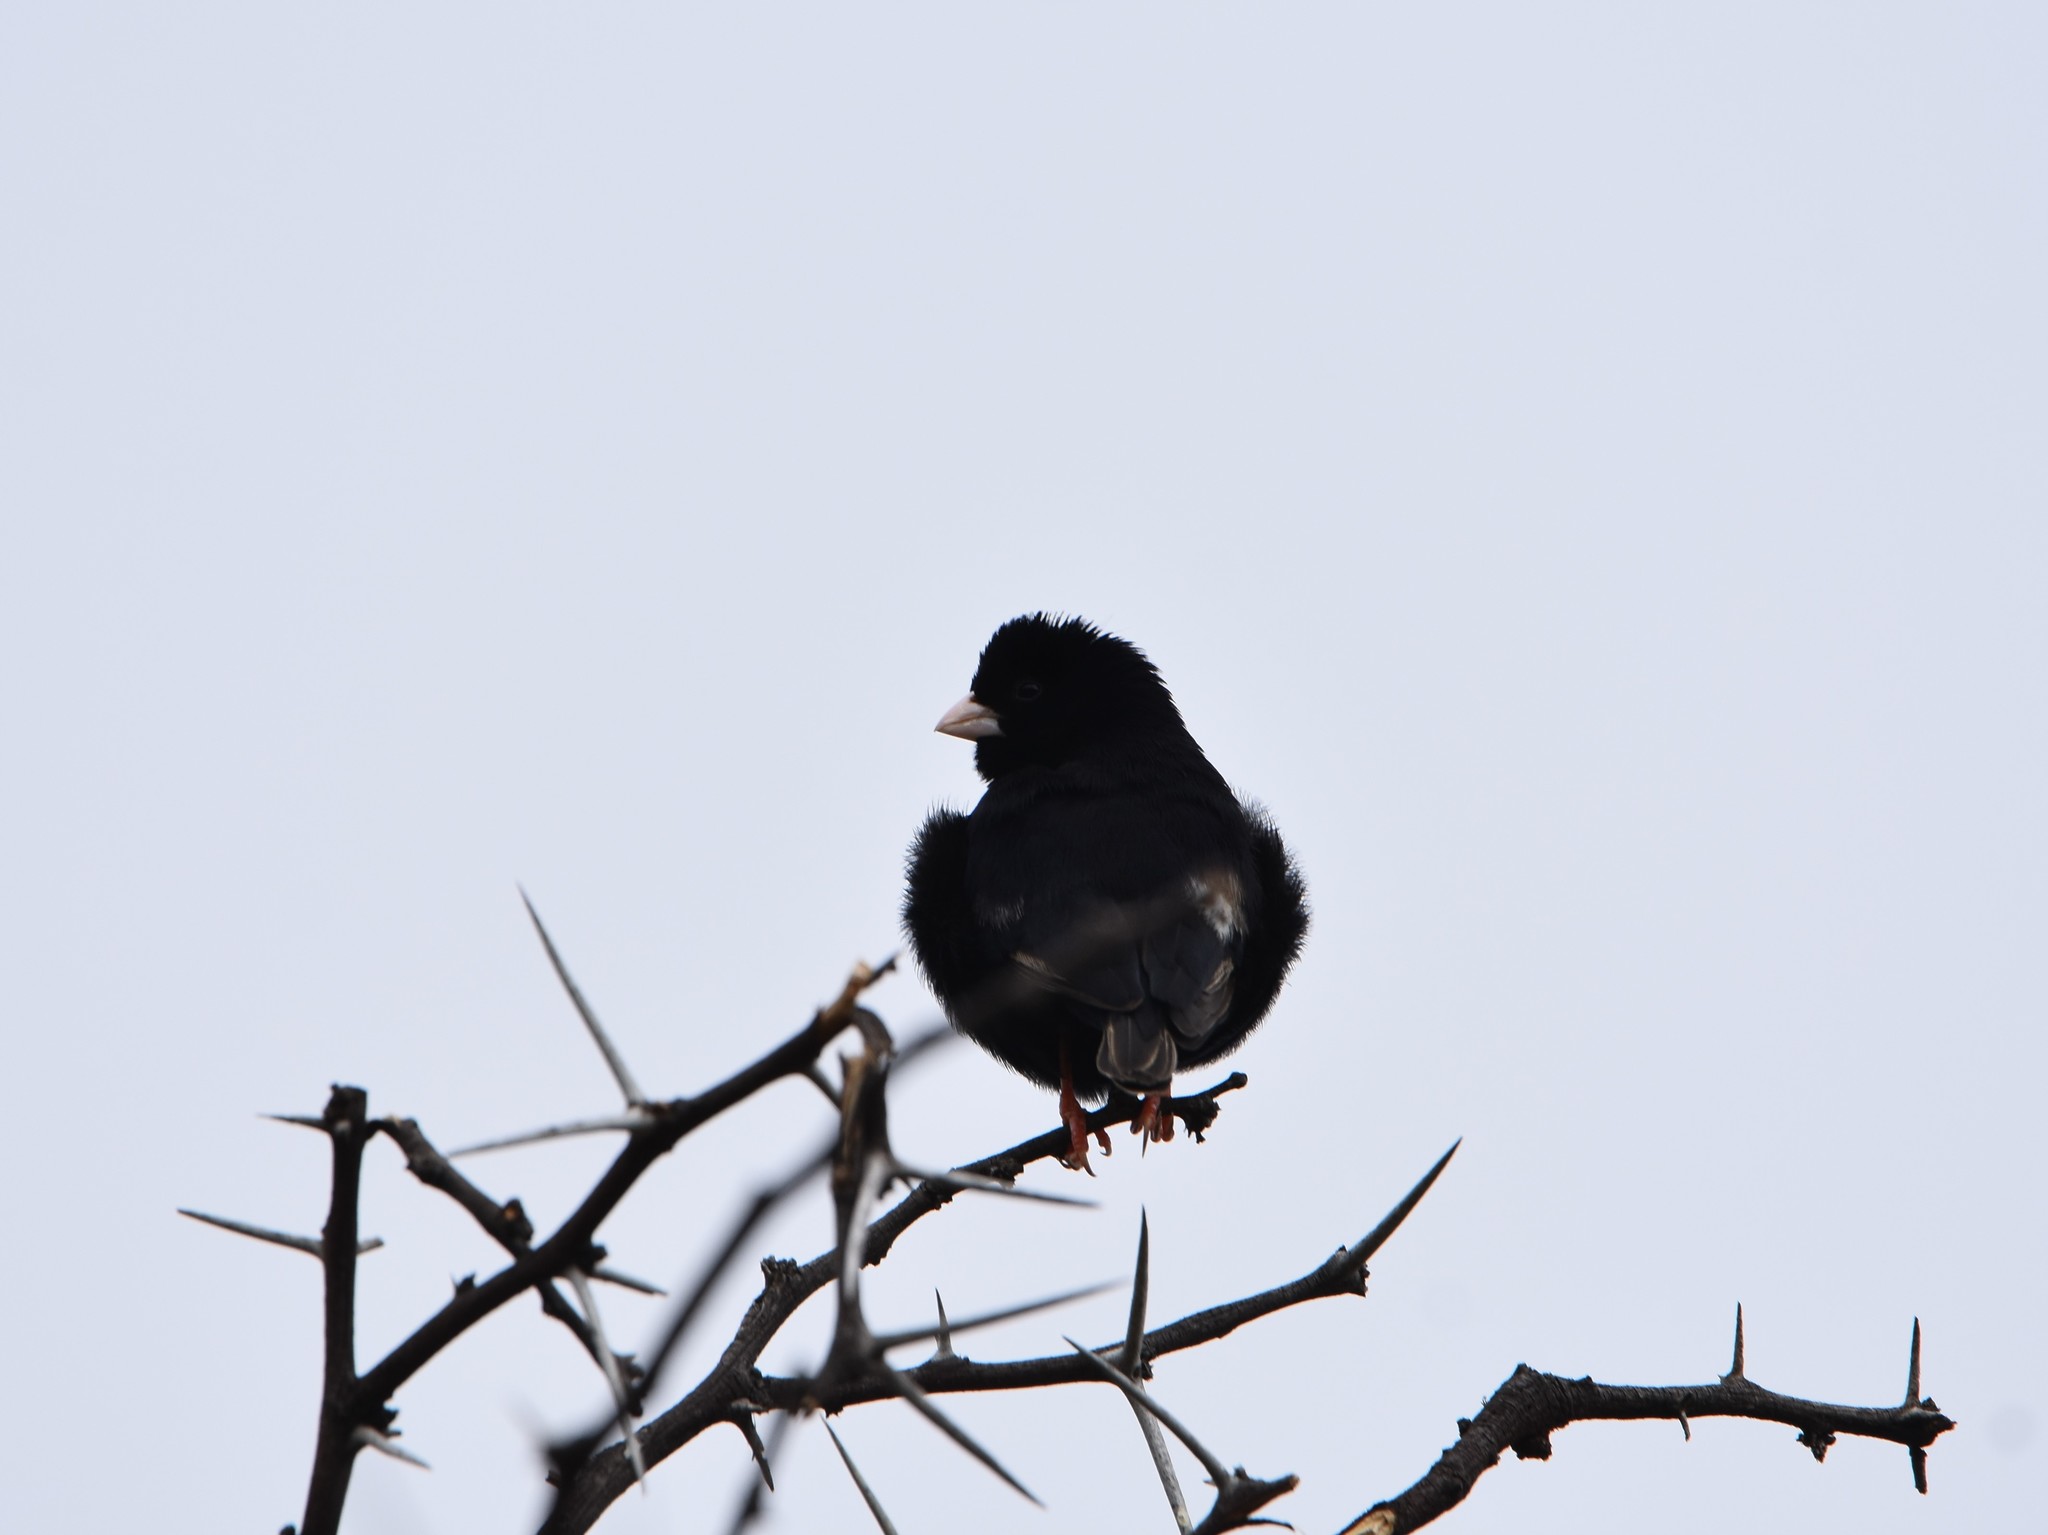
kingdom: Animalia
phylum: Chordata
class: Aves
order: Passeriformes
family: Viduidae
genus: Vidua
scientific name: Vidua funerea
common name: Dusky indigobird
